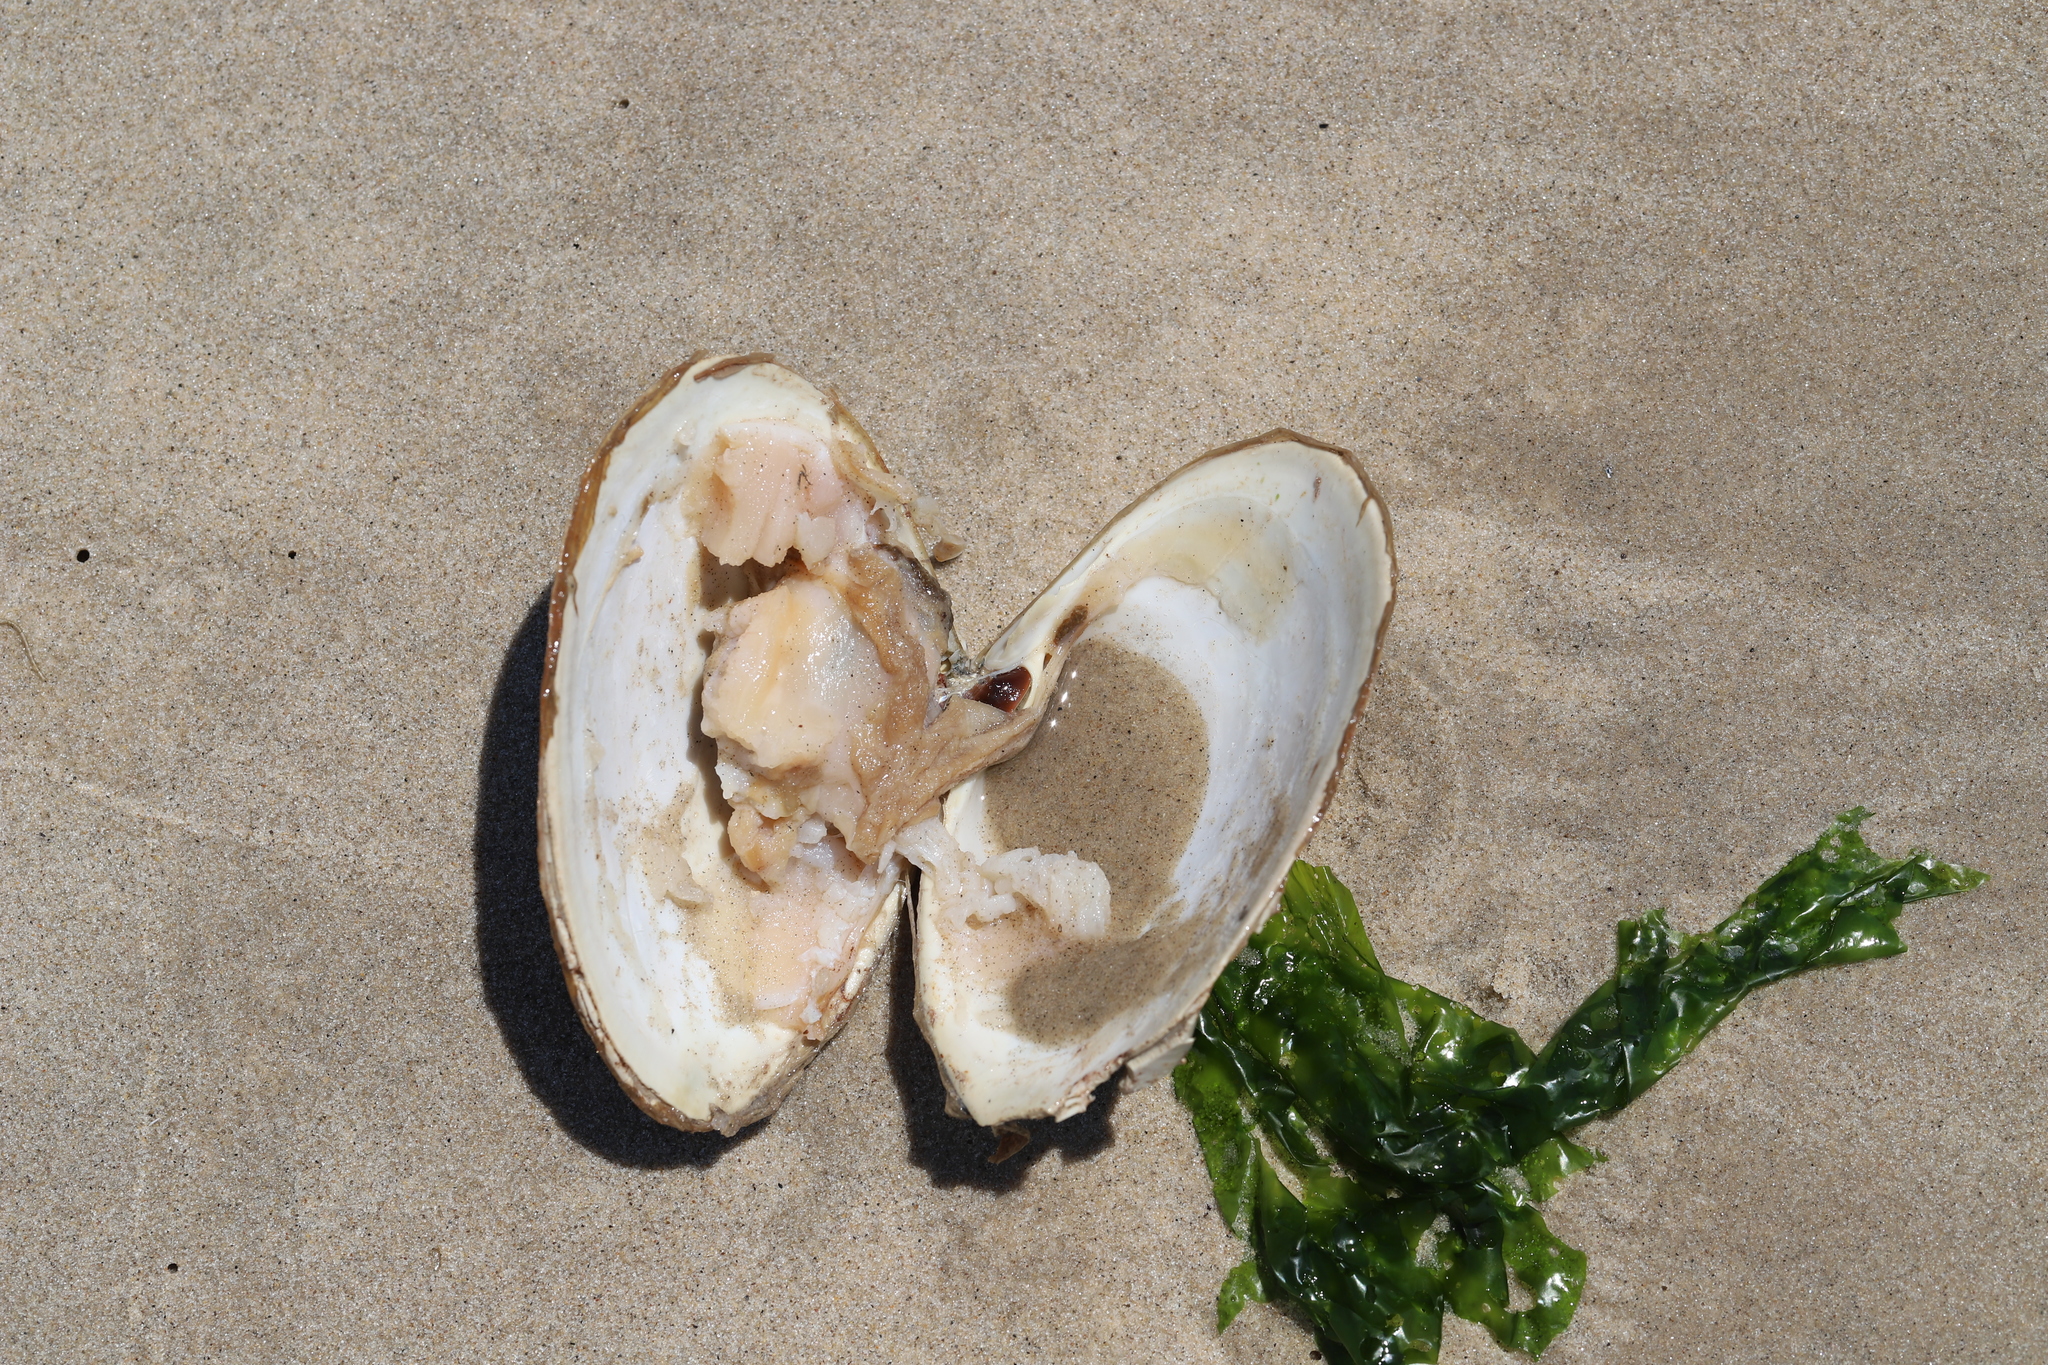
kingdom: Animalia
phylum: Mollusca
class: Bivalvia
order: Venerida
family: Mactridae
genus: Spisula
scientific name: Spisula solidissima
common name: Atlantic surf clam
